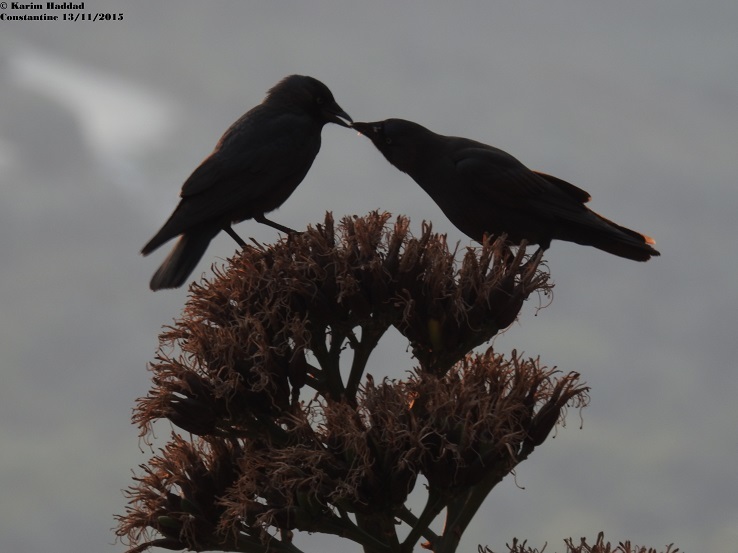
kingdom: Animalia
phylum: Chordata
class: Aves
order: Passeriformes
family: Corvidae
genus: Coloeus
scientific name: Coloeus monedula
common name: Western jackdaw
